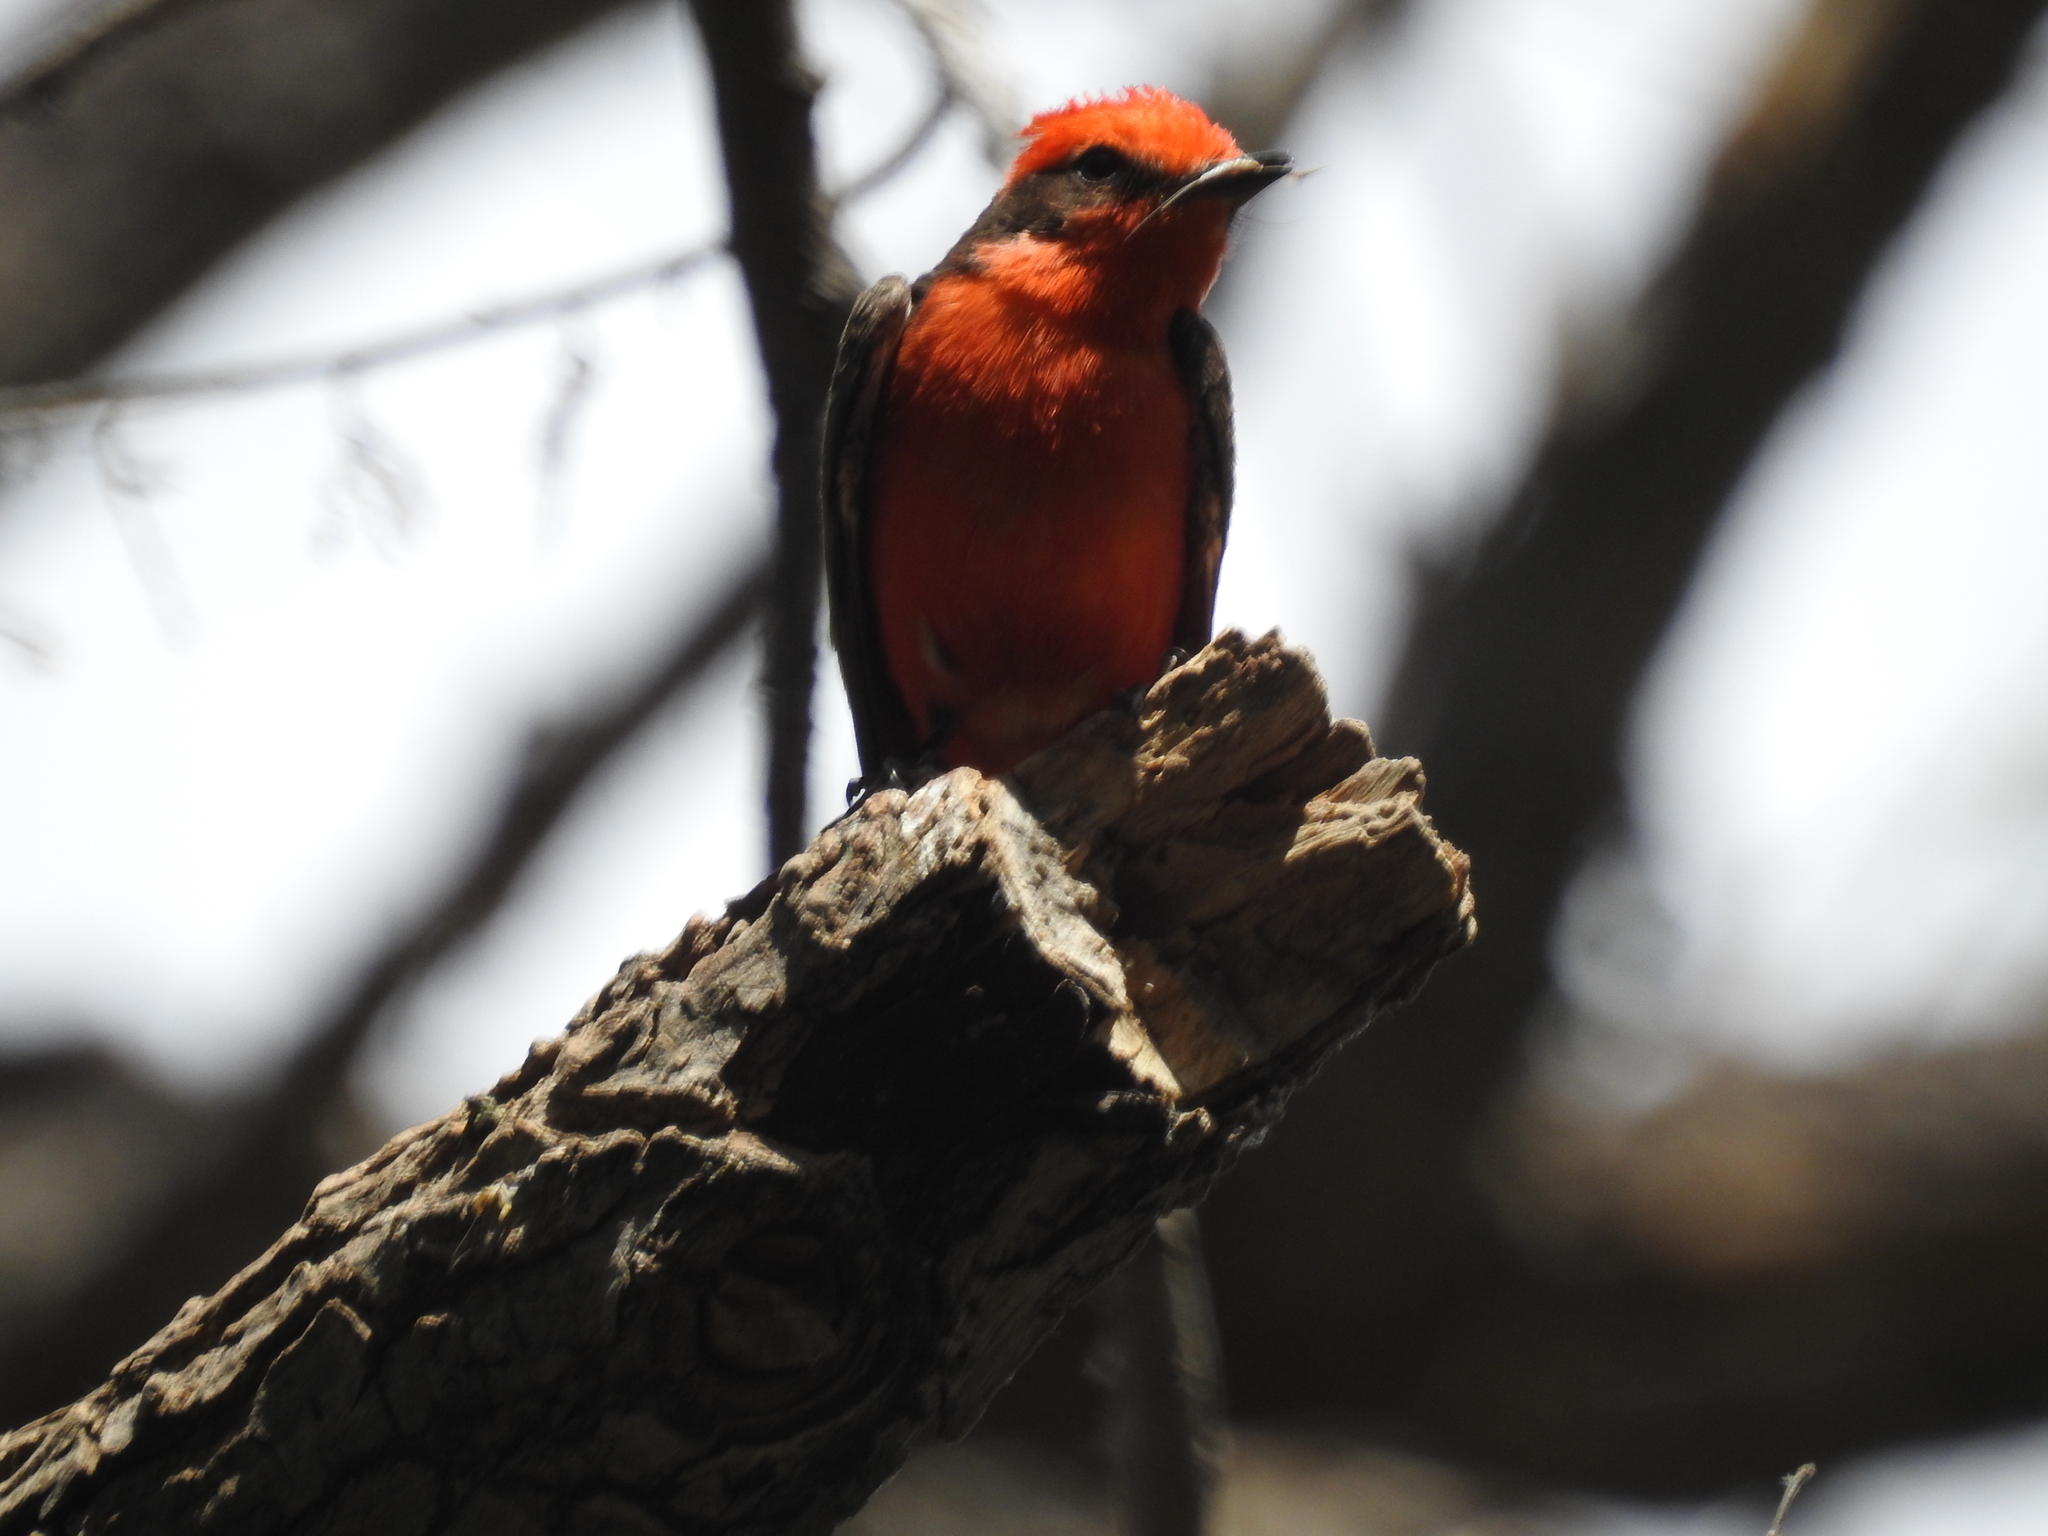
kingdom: Animalia
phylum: Chordata
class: Aves
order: Passeriformes
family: Tyrannidae
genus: Pyrocephalus
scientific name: Pyrocephalus rubinus
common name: Vermilion flycatcher
